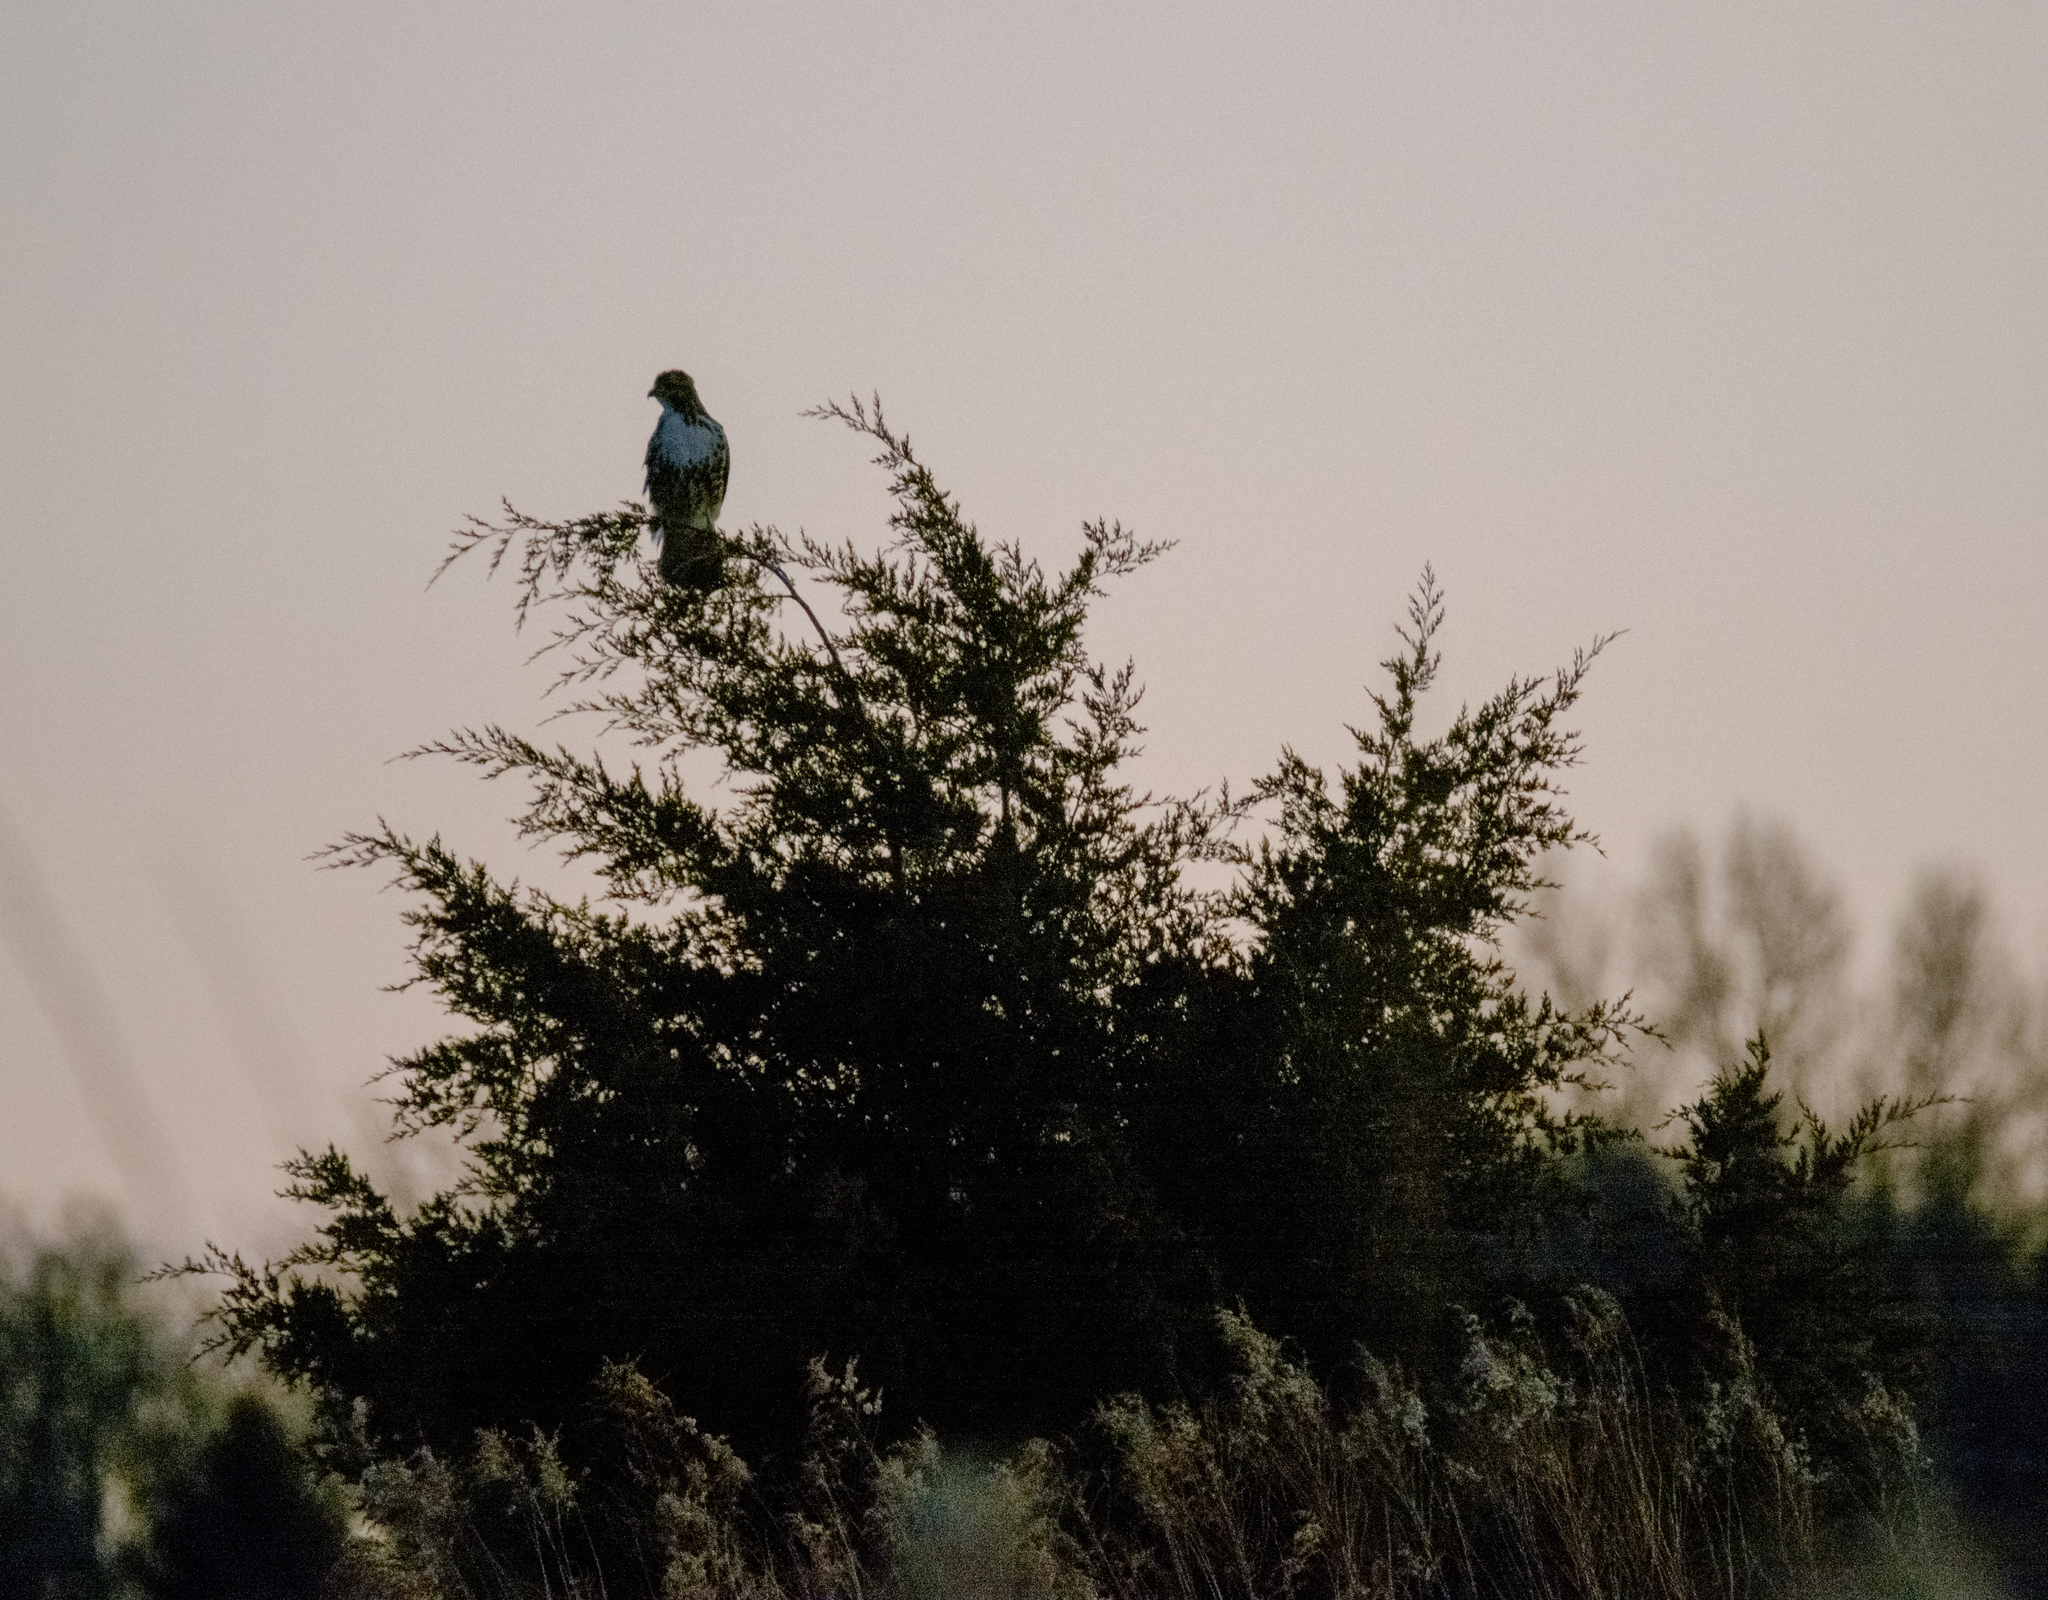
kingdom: Animalia
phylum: Chordata
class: Aves
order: Accipitriformes
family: Accipitridae
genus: Buteo
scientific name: Buteo jamaicensis
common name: Red-tailed hawk
